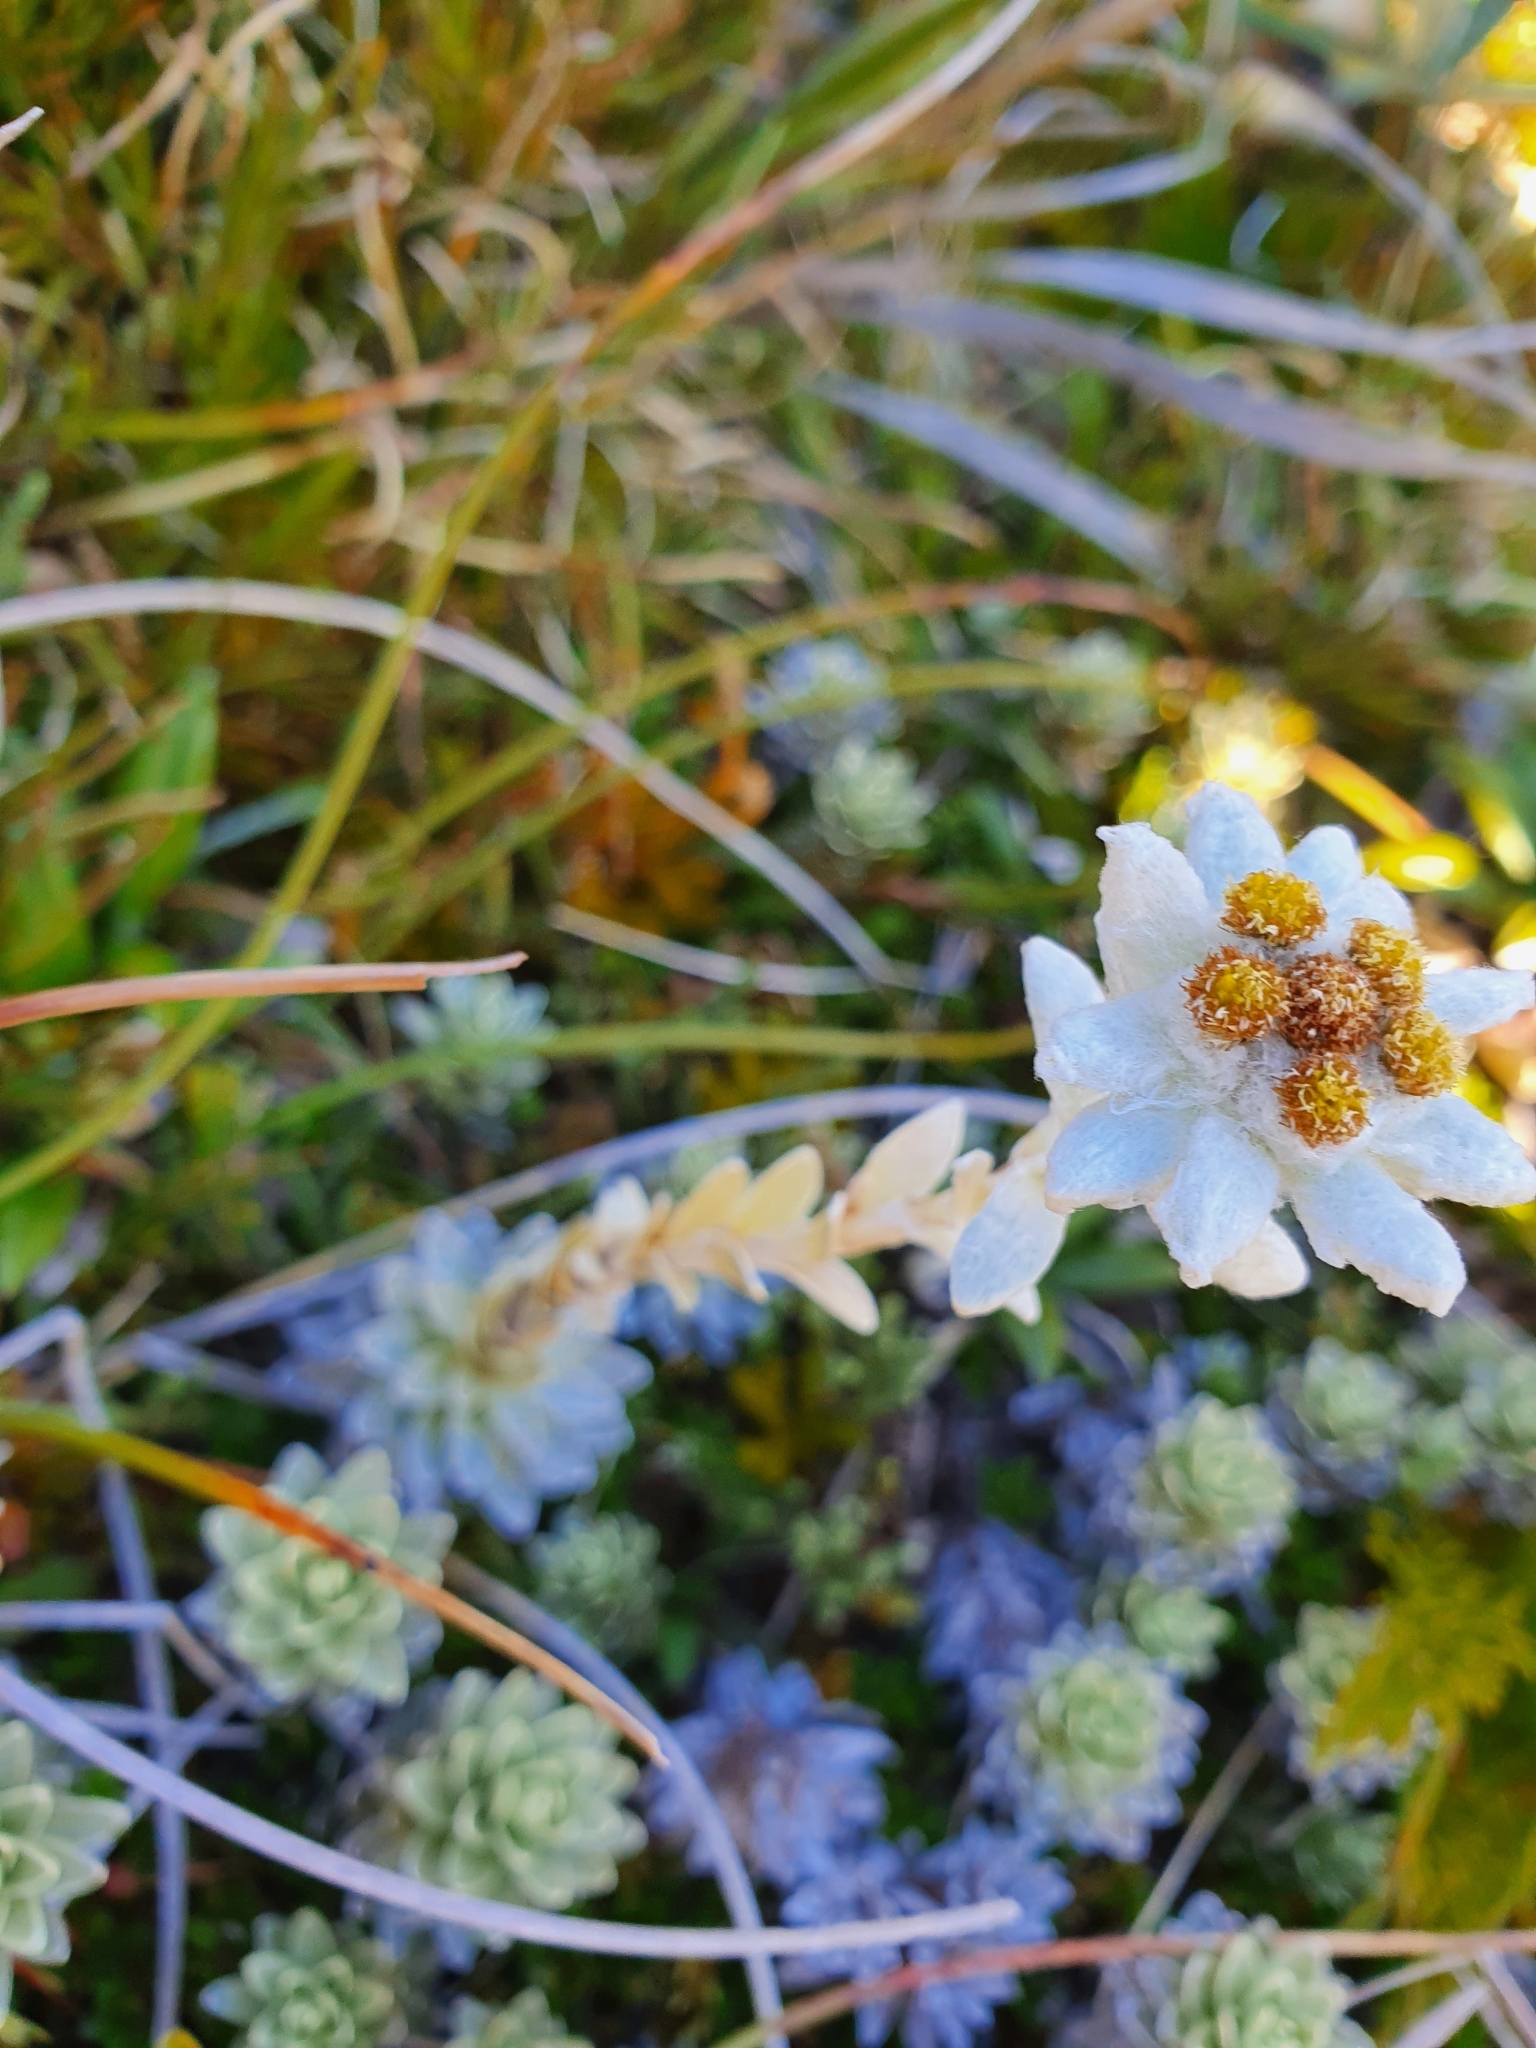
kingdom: Plantae
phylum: Tracheophyta
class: Magnoliopsida
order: Asterales
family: Asteraceae
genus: Leucogenes
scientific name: Leucogenes leontopodium
